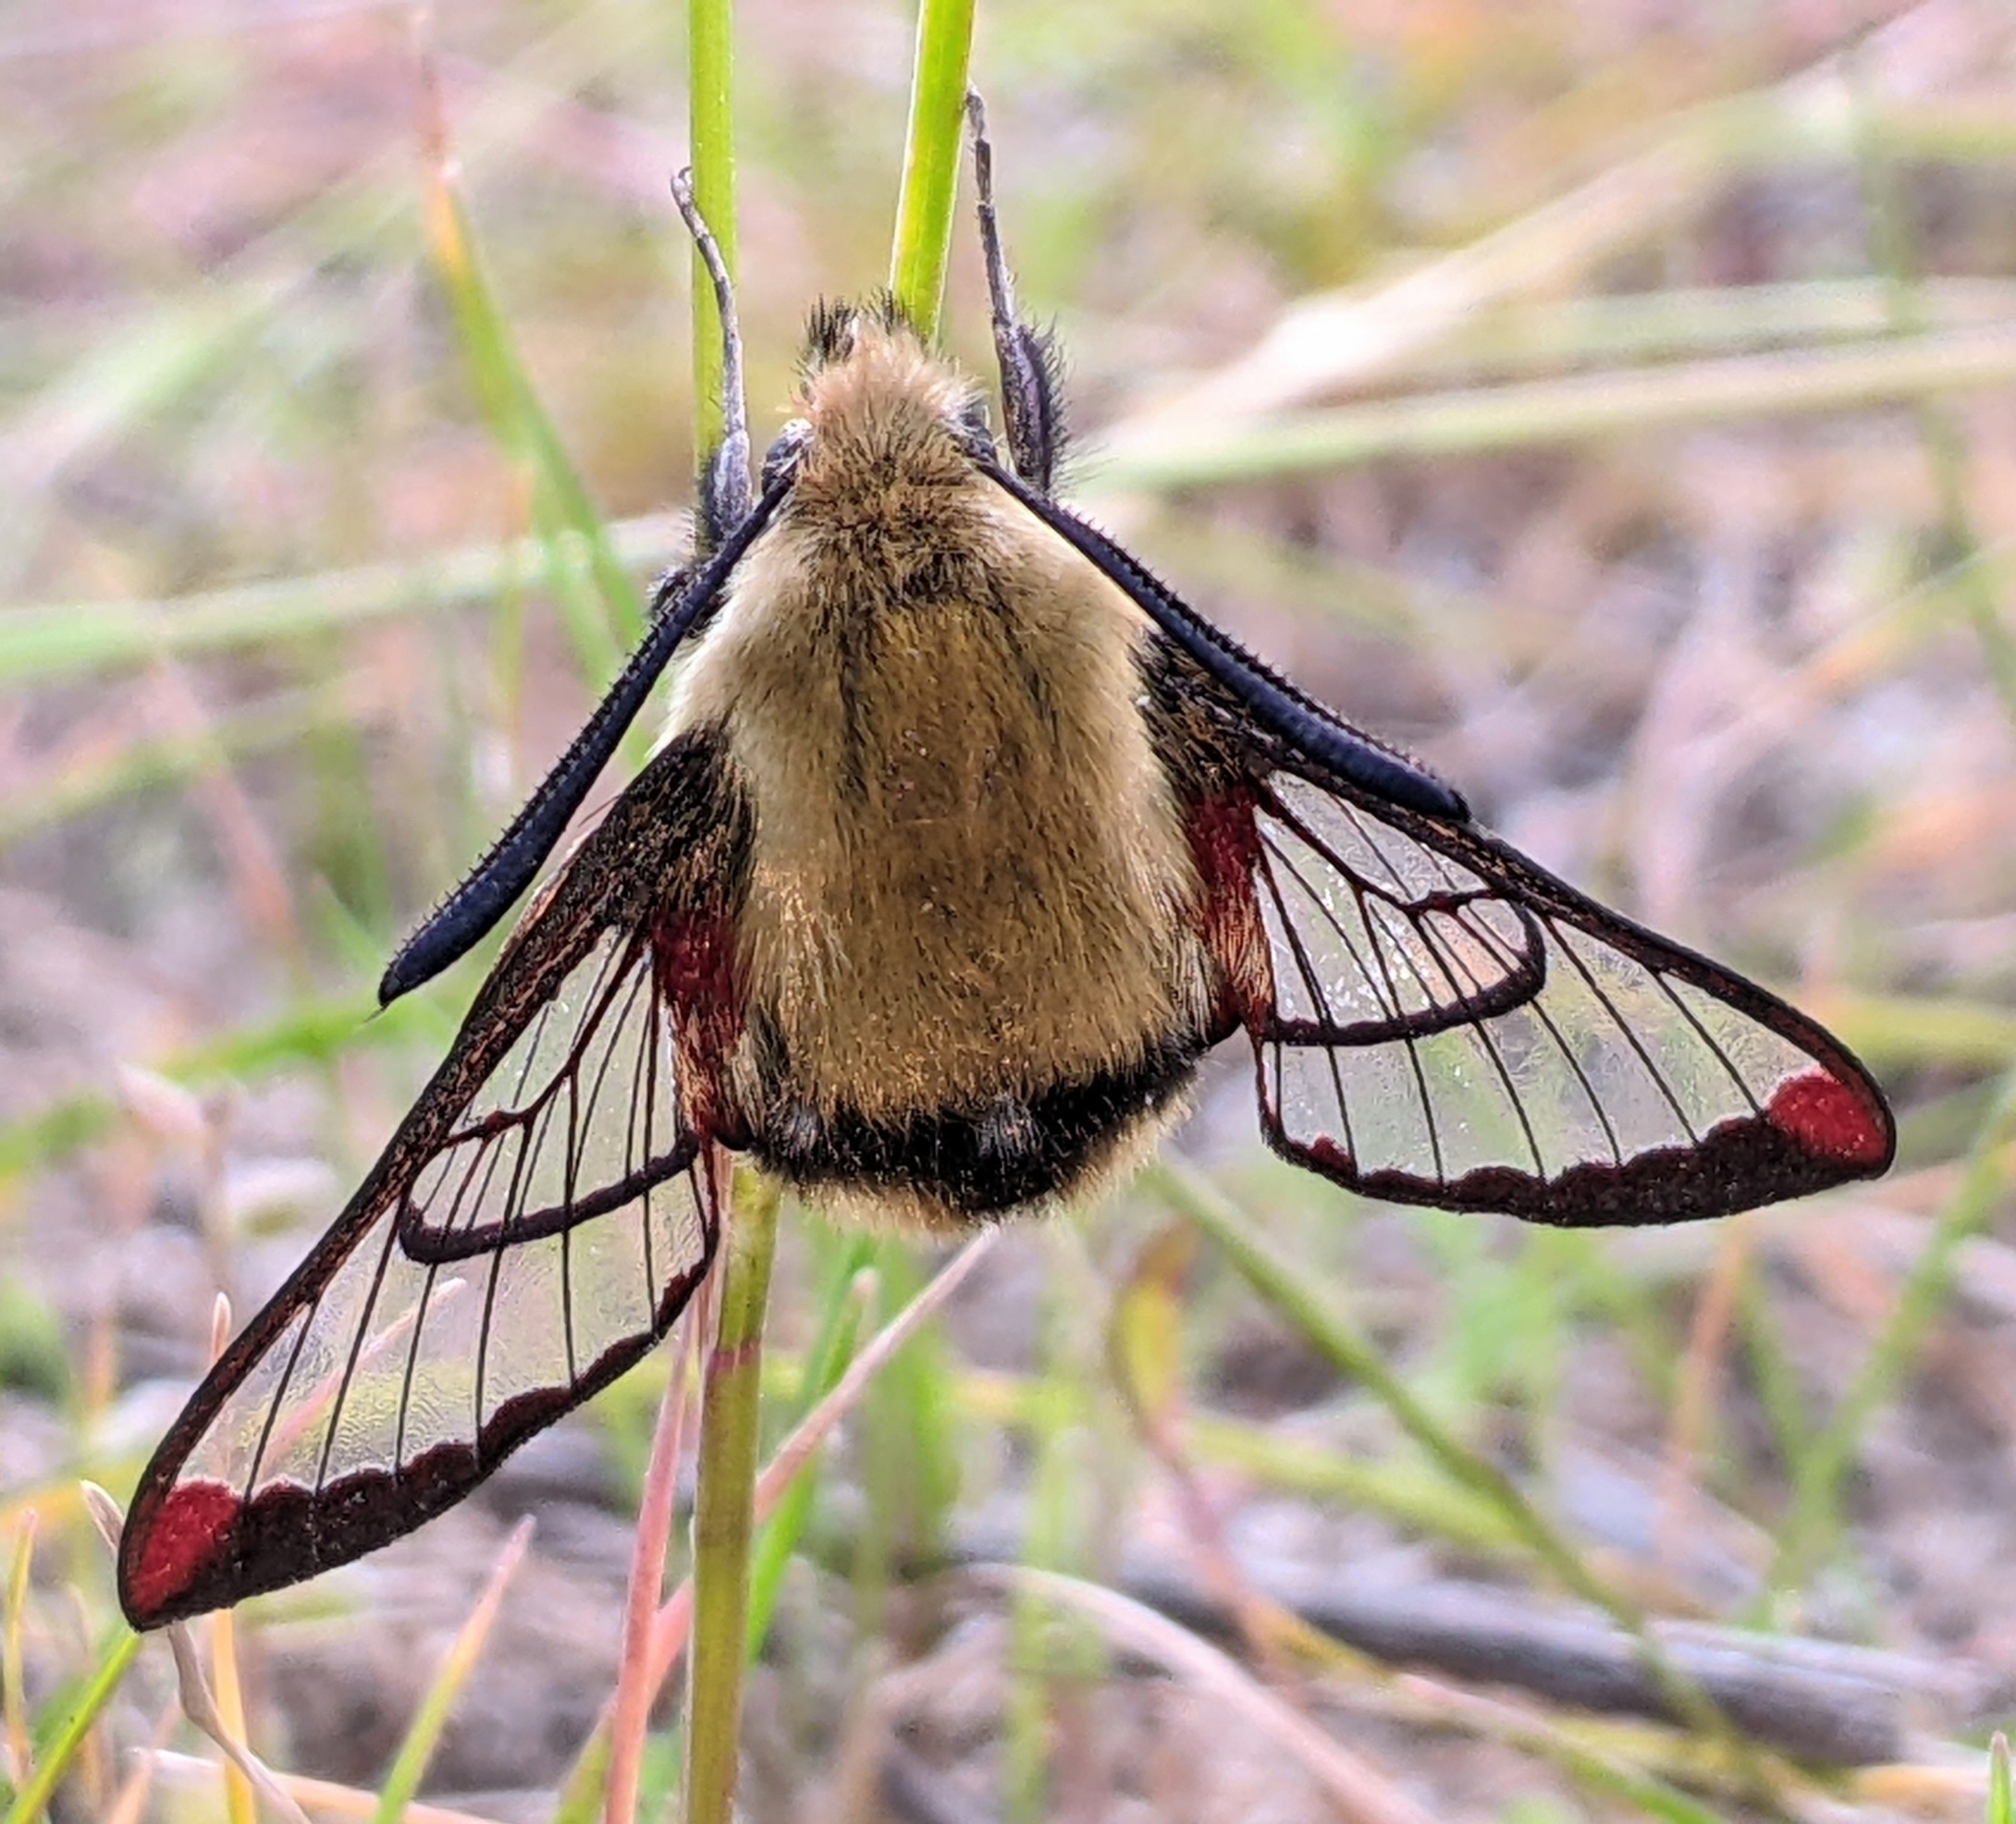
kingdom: Animalia
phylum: Arthropoda
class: Insecta
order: Lepidoptera
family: Sphingidae
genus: Hemaris
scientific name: Hemaris thetis
